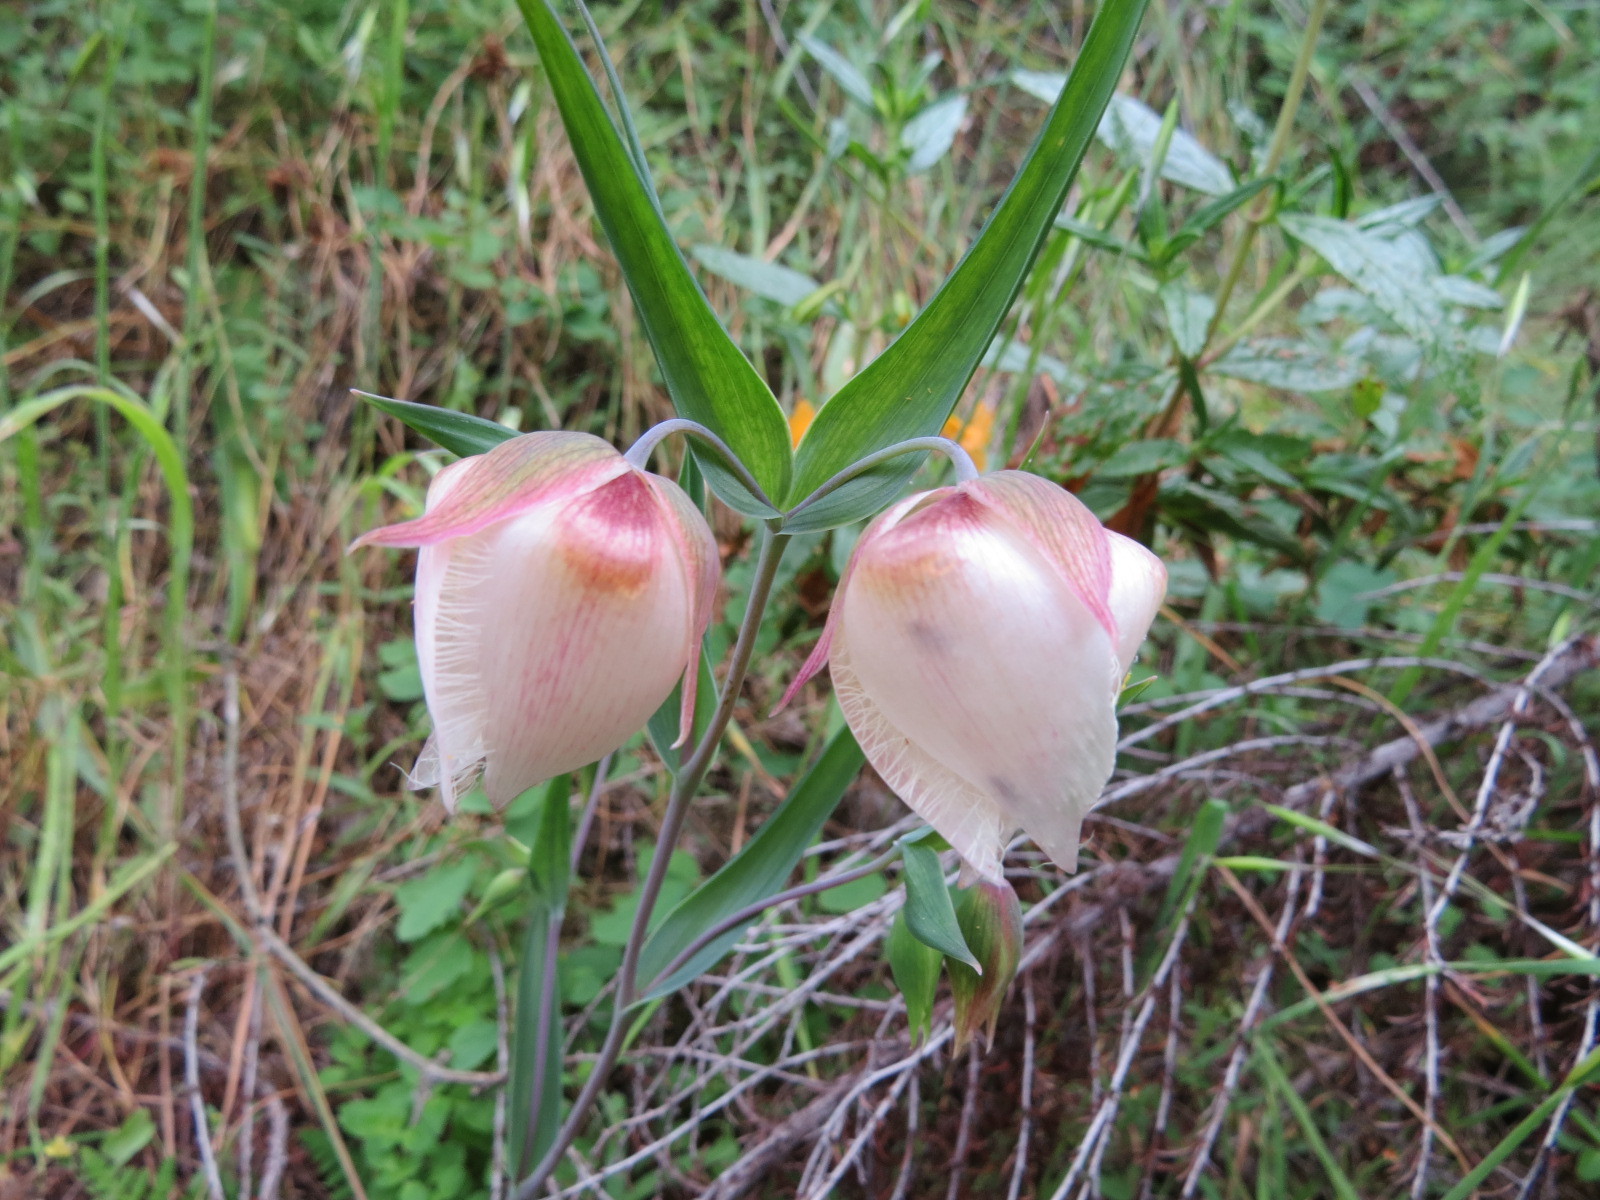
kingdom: Plantae
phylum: Tracheophyta
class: Liliopsida
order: Liliales
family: Liliaceae
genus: Calochortus
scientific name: Calochortus albus
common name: Fairy-lantern
